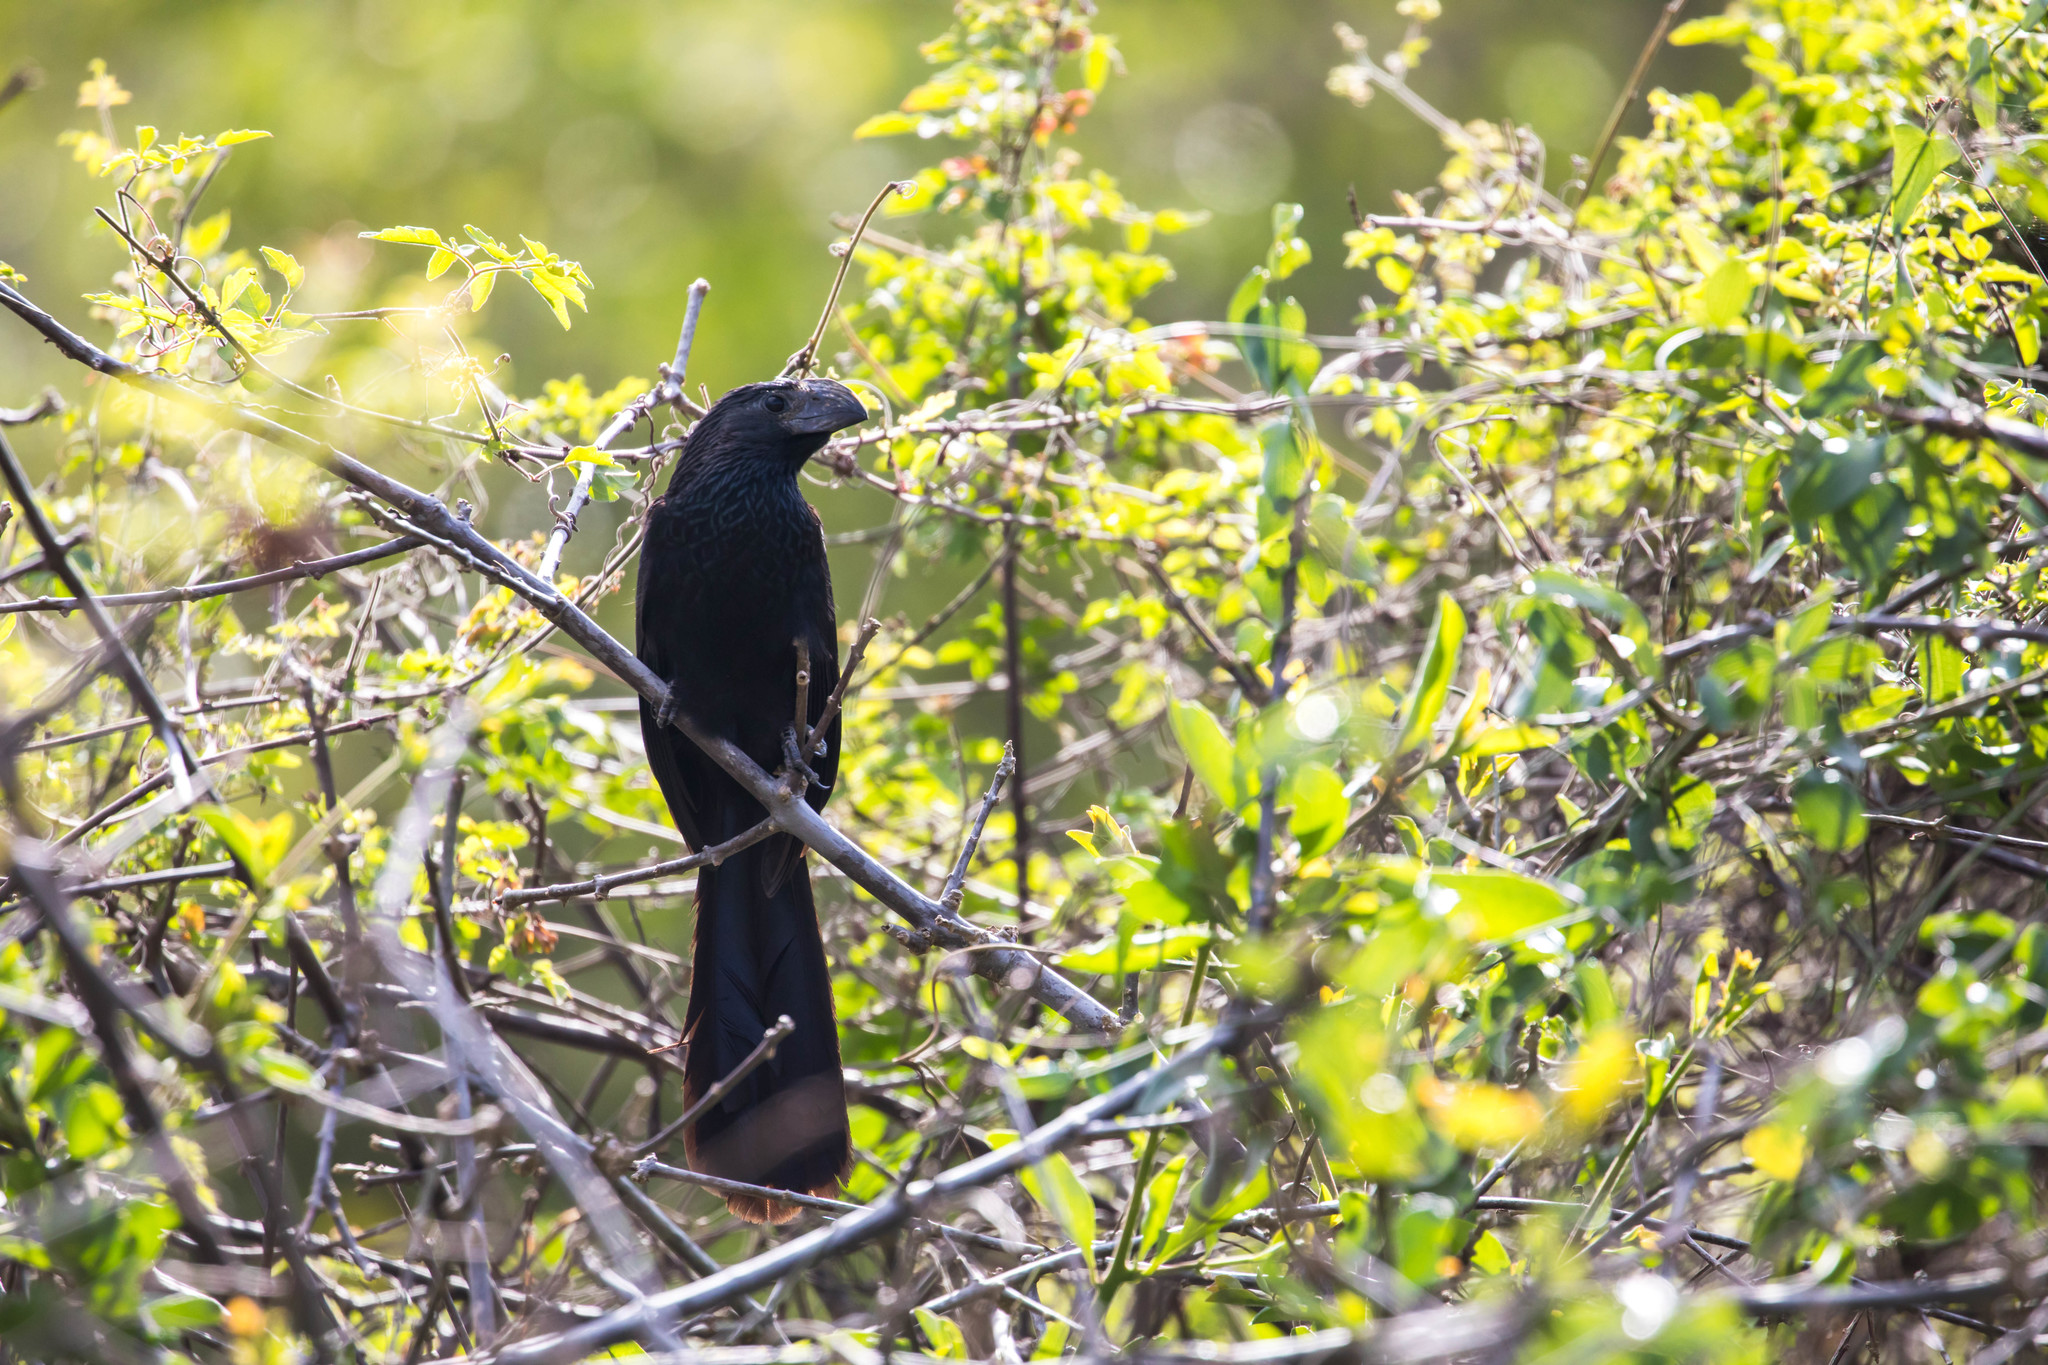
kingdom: Animalia
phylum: Chordata
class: Aves
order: Cuculiformes
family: Cuculidae
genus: Crotophaga
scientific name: Crotophaga sulcirostris
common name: Groove-billed ani
